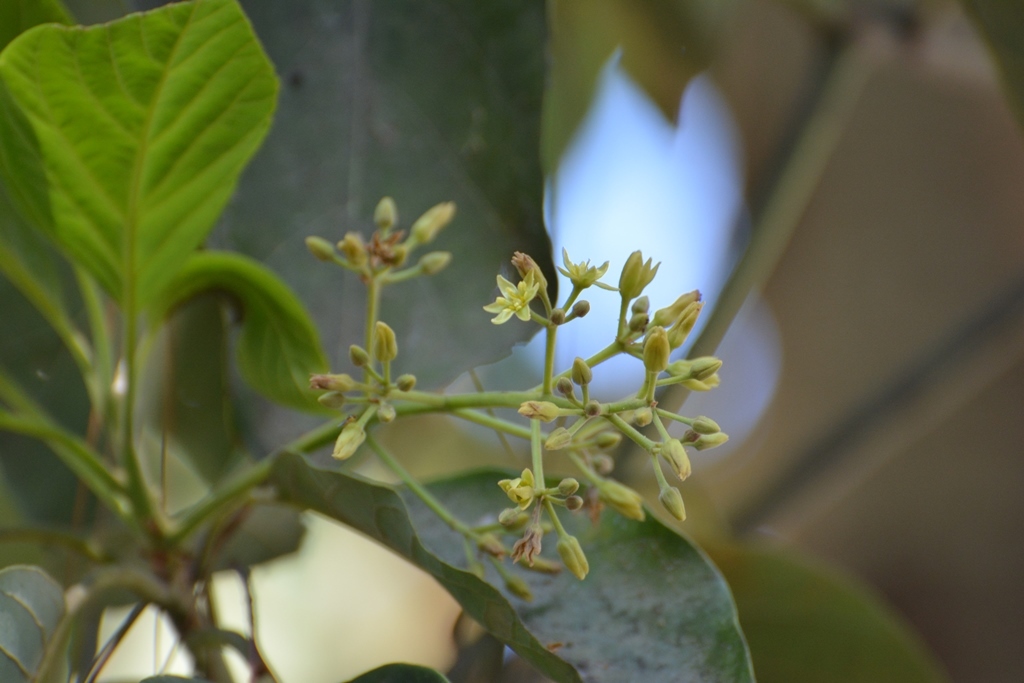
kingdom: Plantae
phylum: Tracheophyta
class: Magnoliopsida
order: Laurales
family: Lauraceae
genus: Persea
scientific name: Persea americana
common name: Avocado
